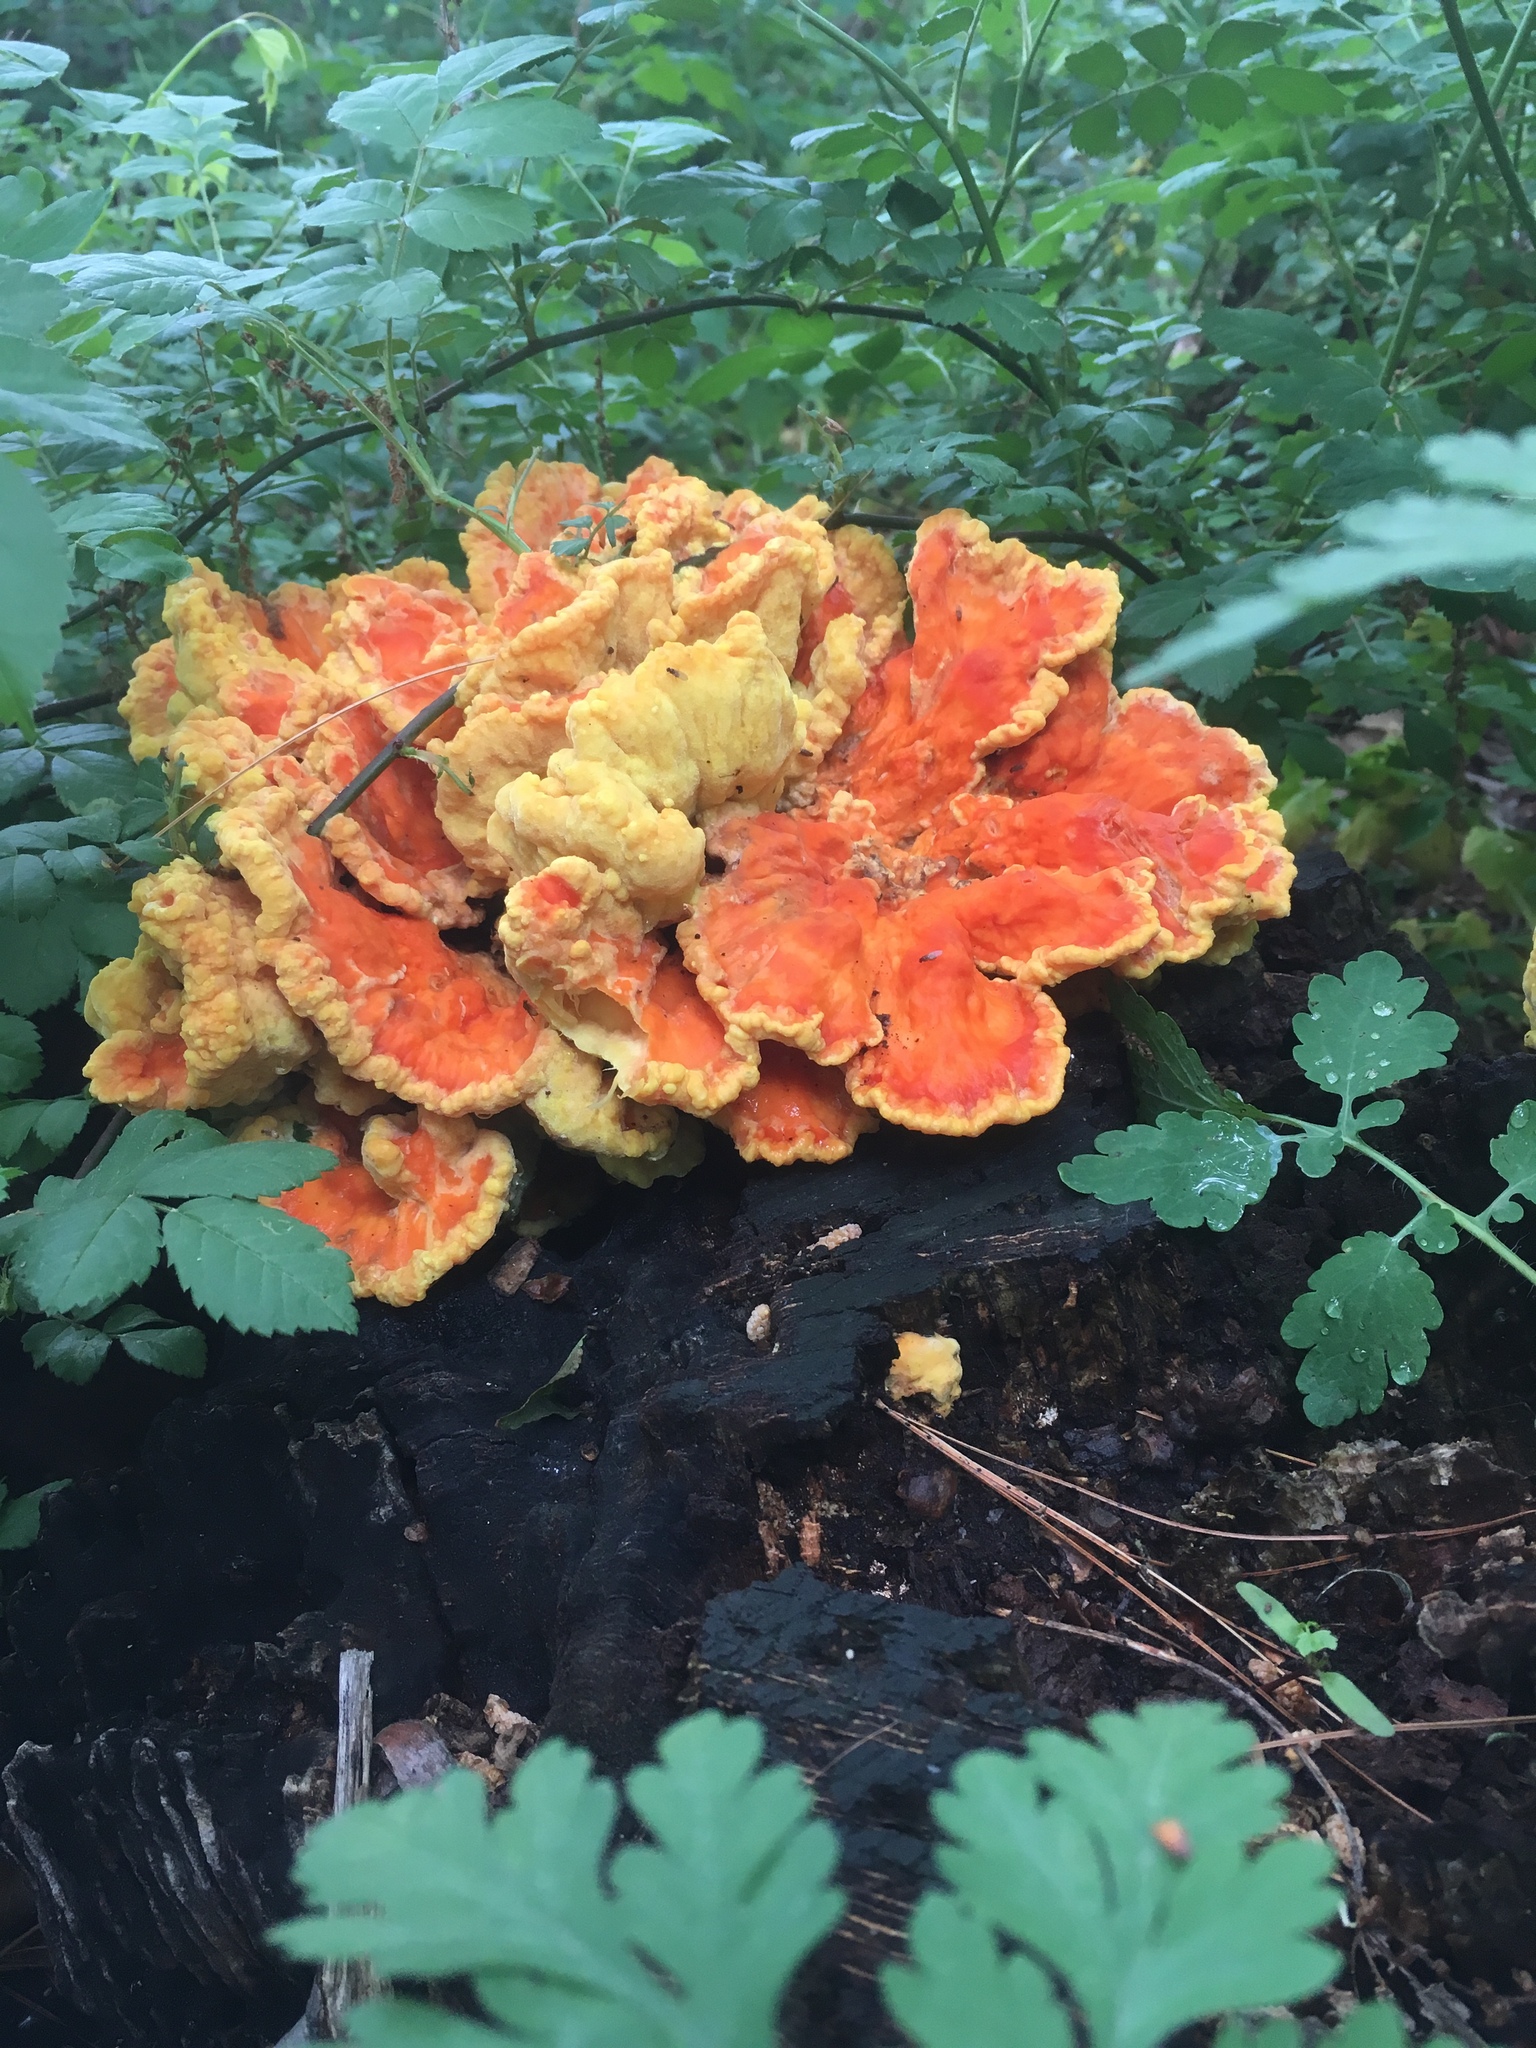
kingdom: Fungi
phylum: Basidiomycota
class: Agaricomycetes
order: Polyporales
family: Laetiporaceae
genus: Laetiporus
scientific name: Laetiporus sulphureus
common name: Chicken of the woods
